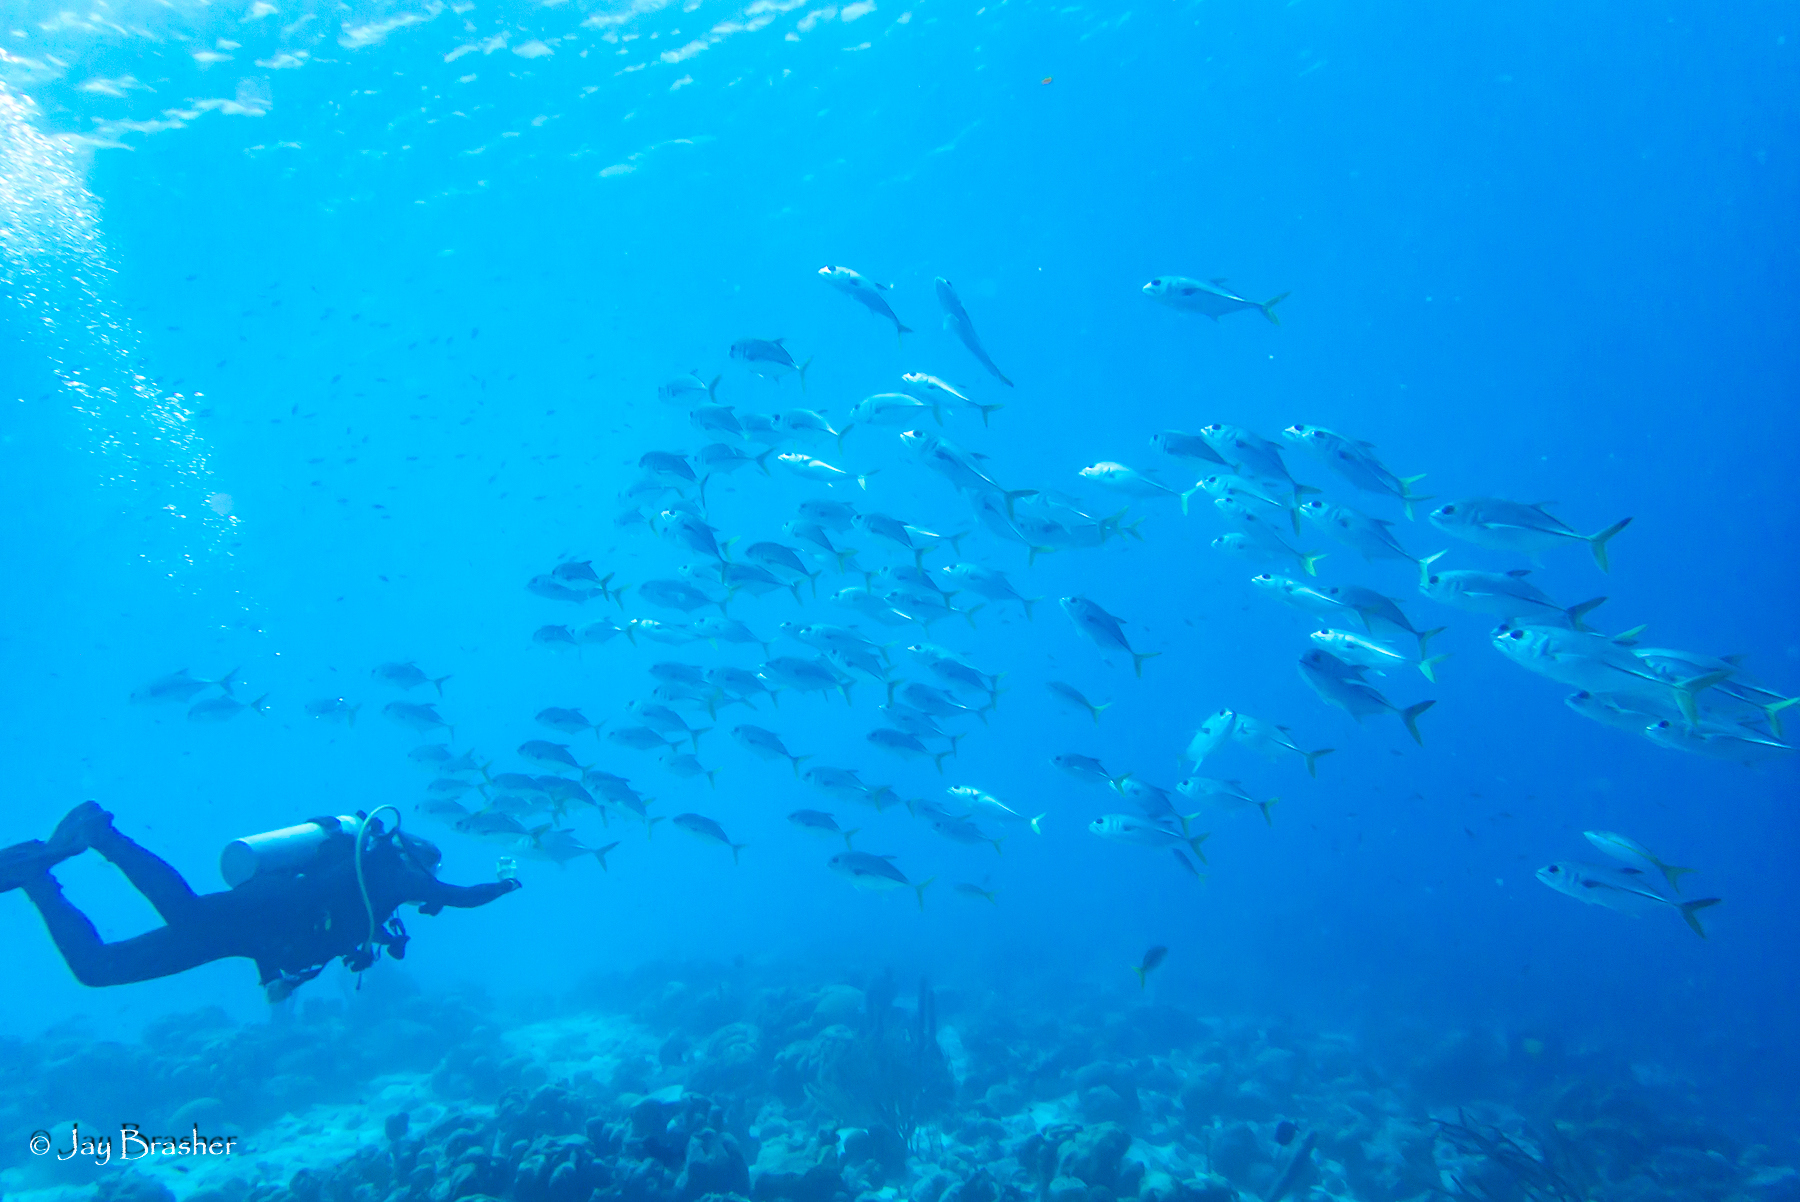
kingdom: Animalia
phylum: Chordata
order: Perciformes
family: Carangidae
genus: Caranx
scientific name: Caranx latus
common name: Horse eye jack
